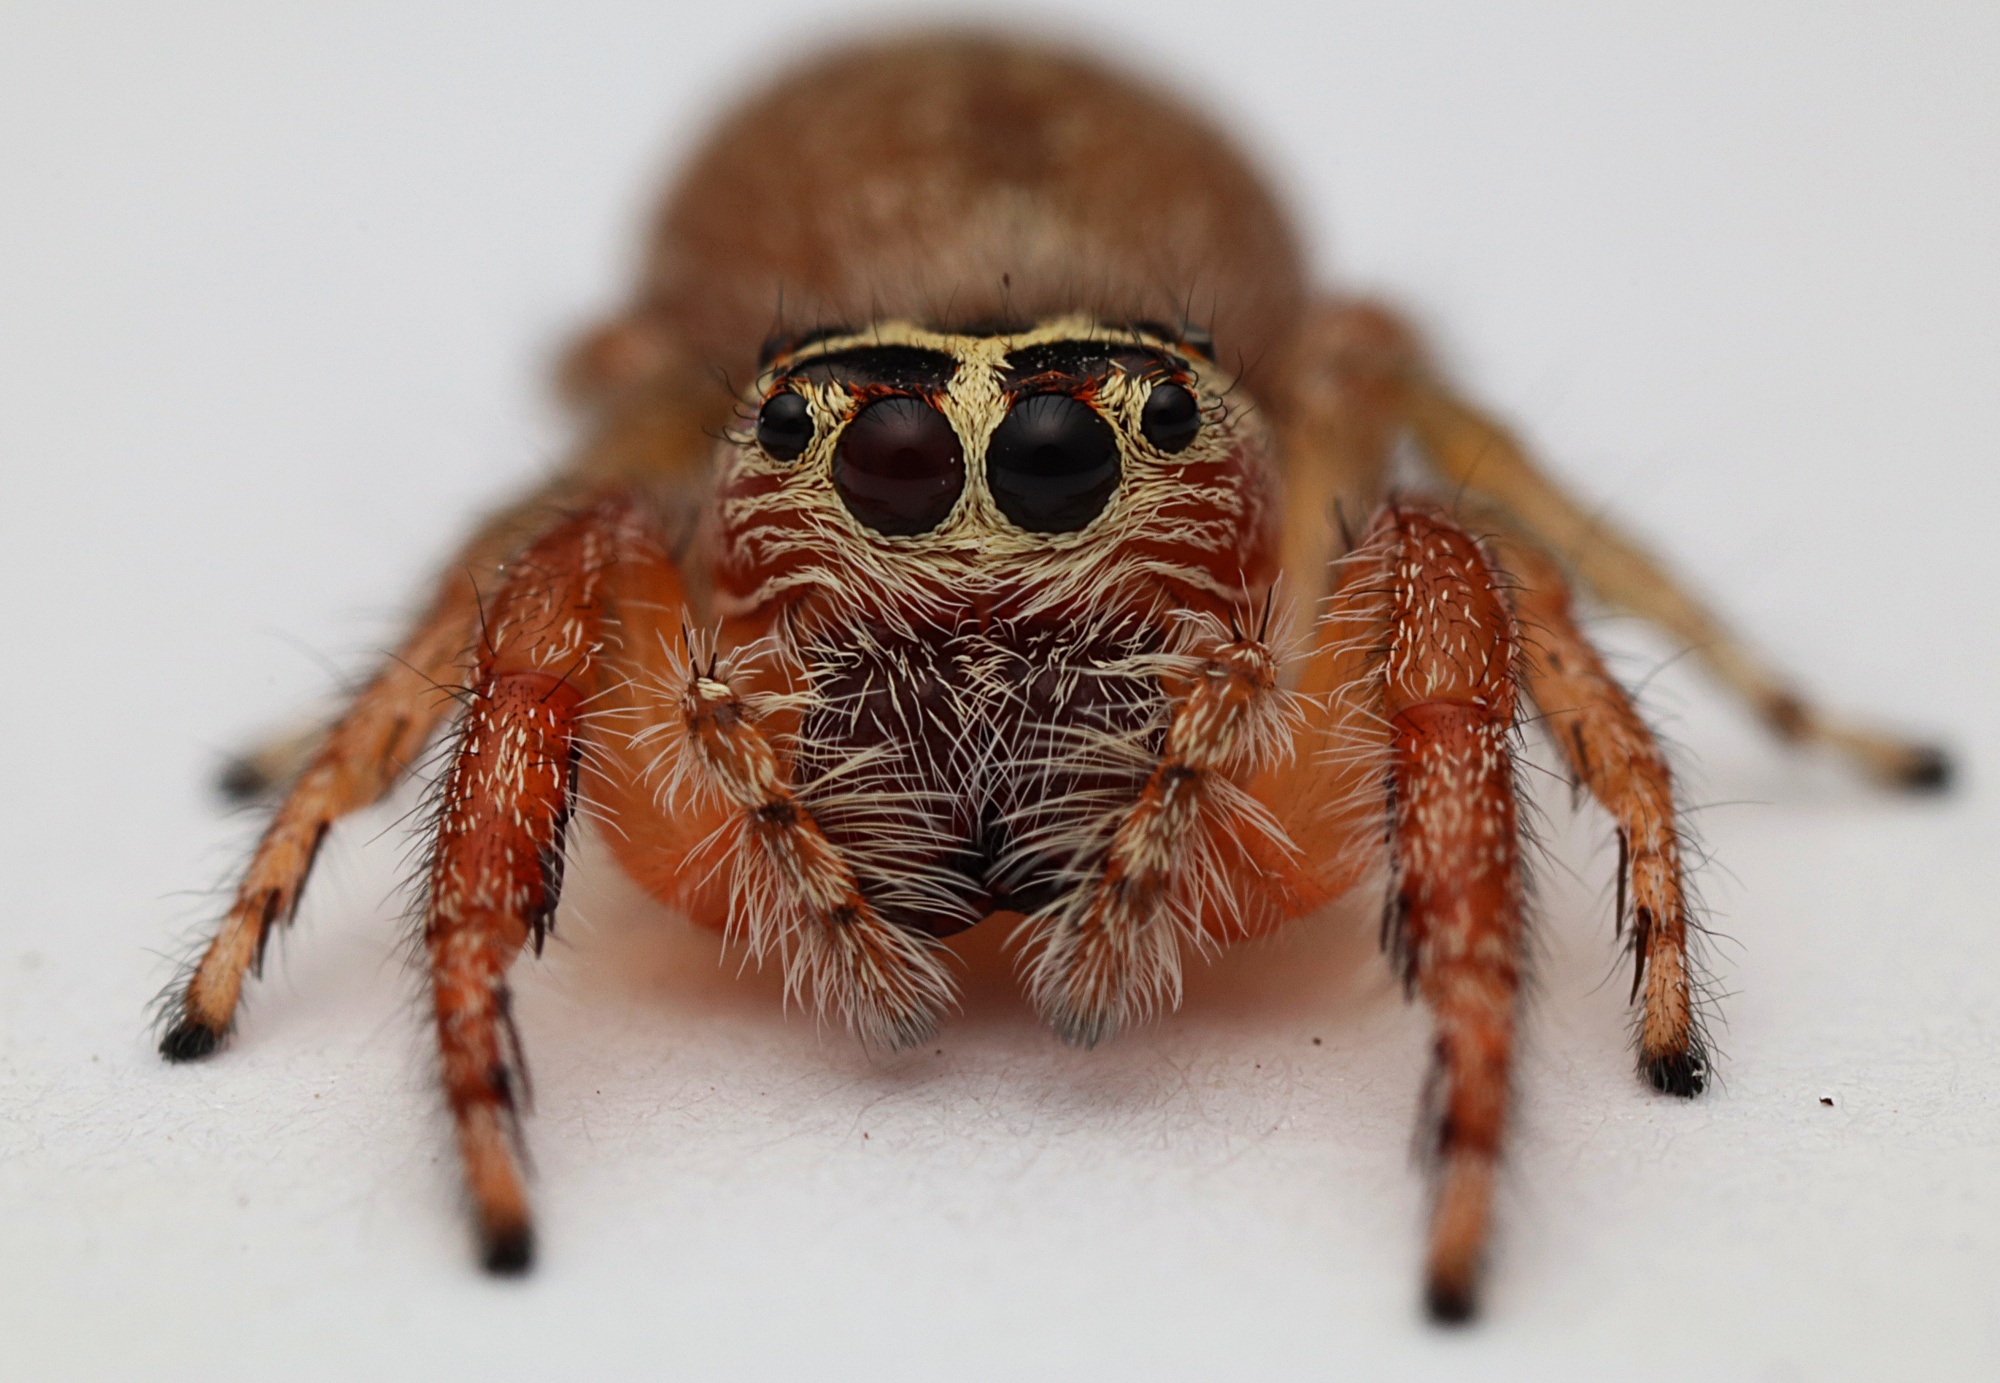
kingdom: Animalia
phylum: Arthropoda
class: Arachnida
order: Araneae
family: Salticidae
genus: Opisthoncus
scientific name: Opisthoncus polyphemus
